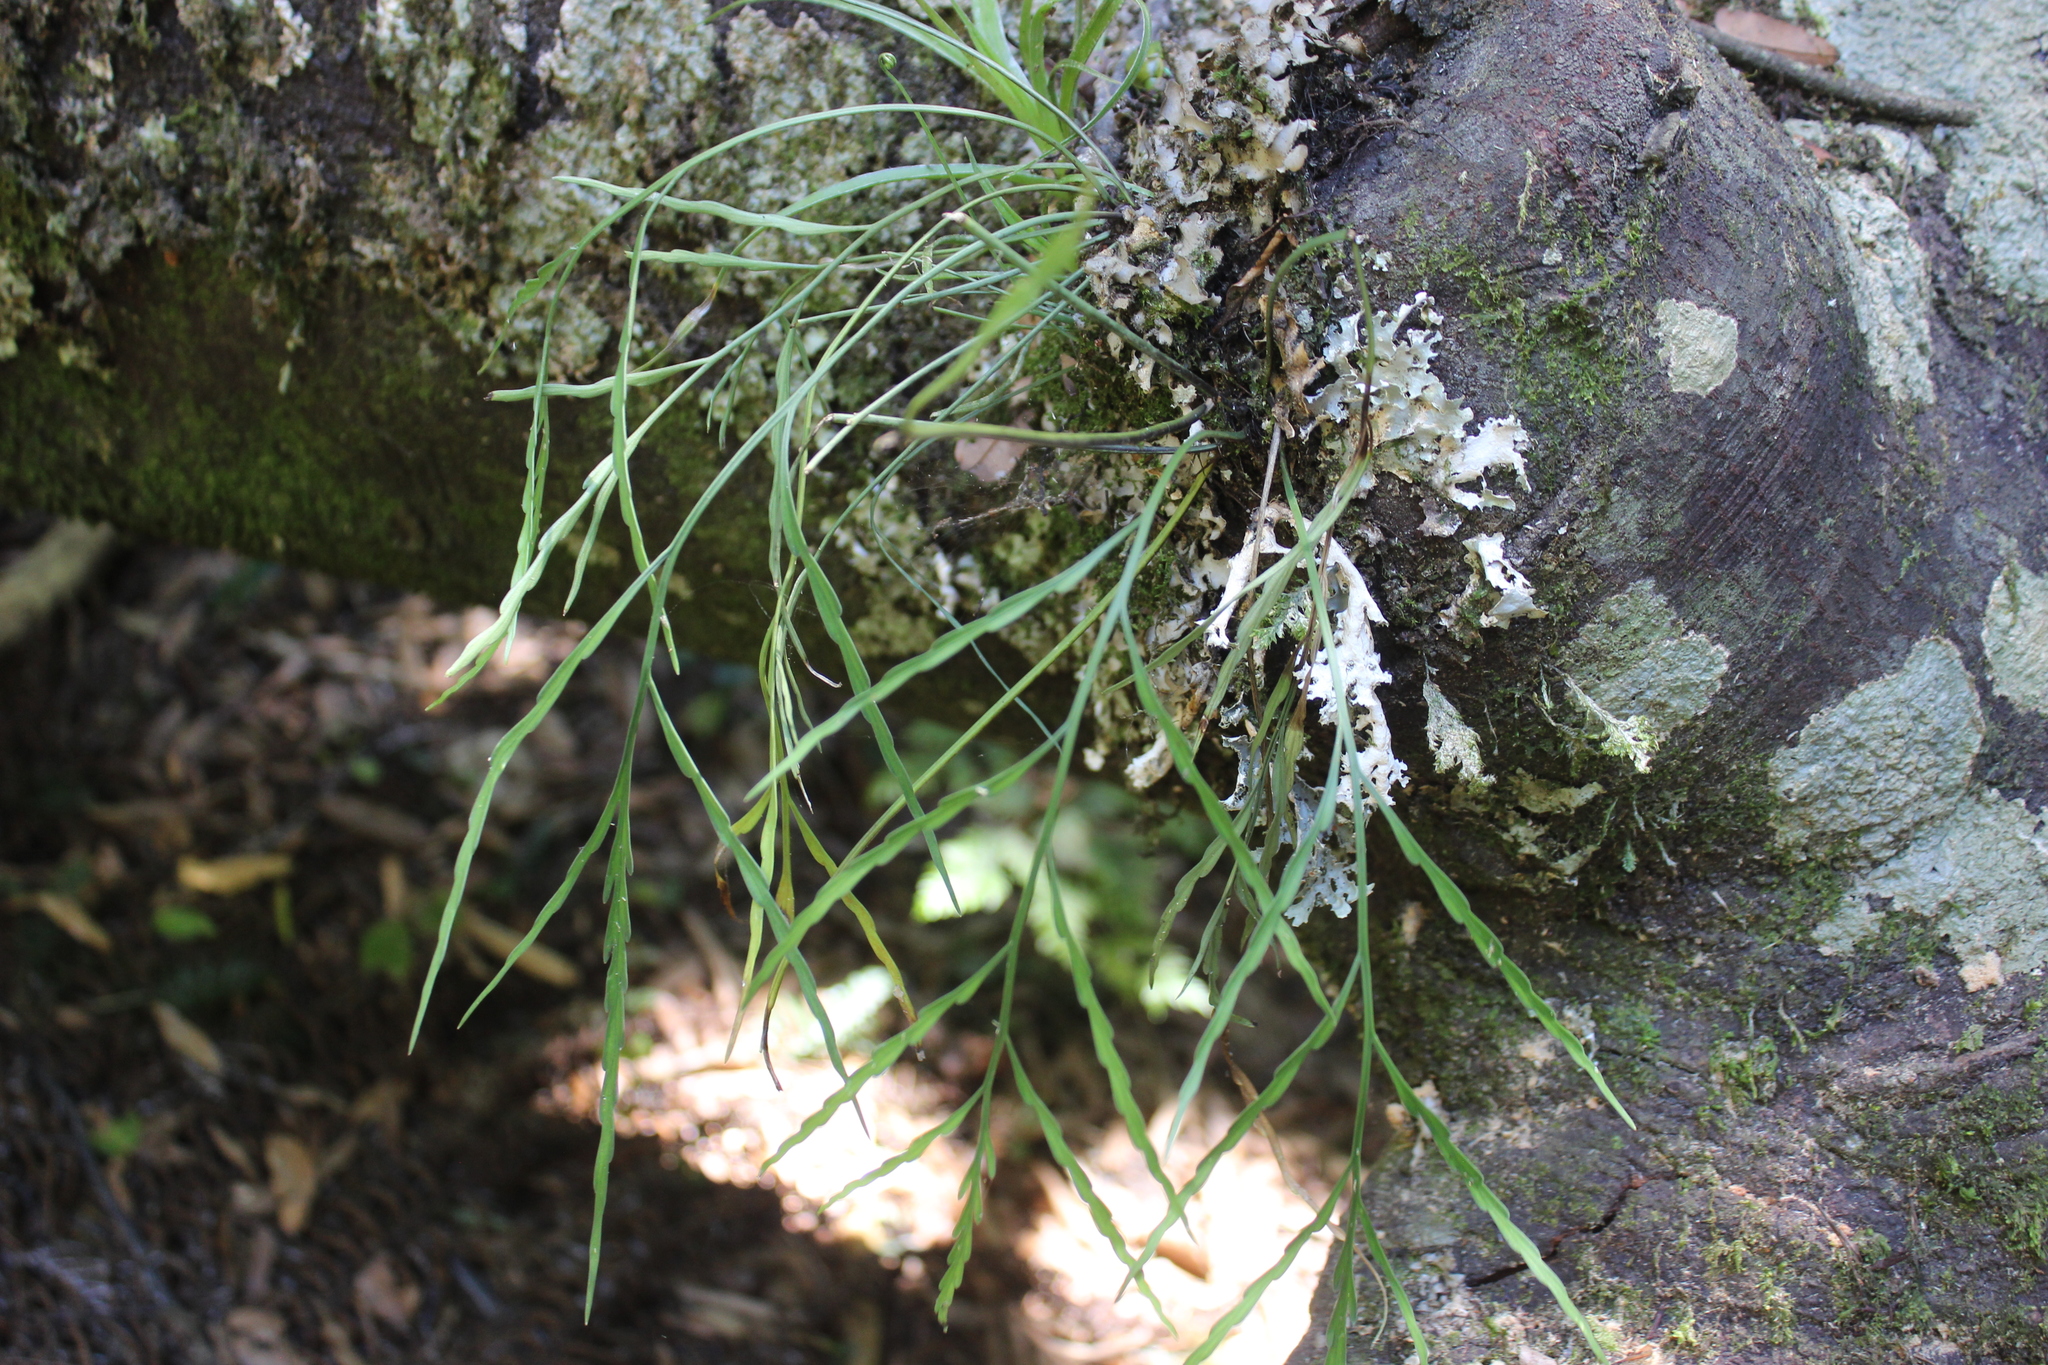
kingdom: Plantae
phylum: Tracheophyta
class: Polypodiopsida
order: Polypodiales
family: Aspleniaceae
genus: Asplenium
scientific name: Asplenium flaccidum
